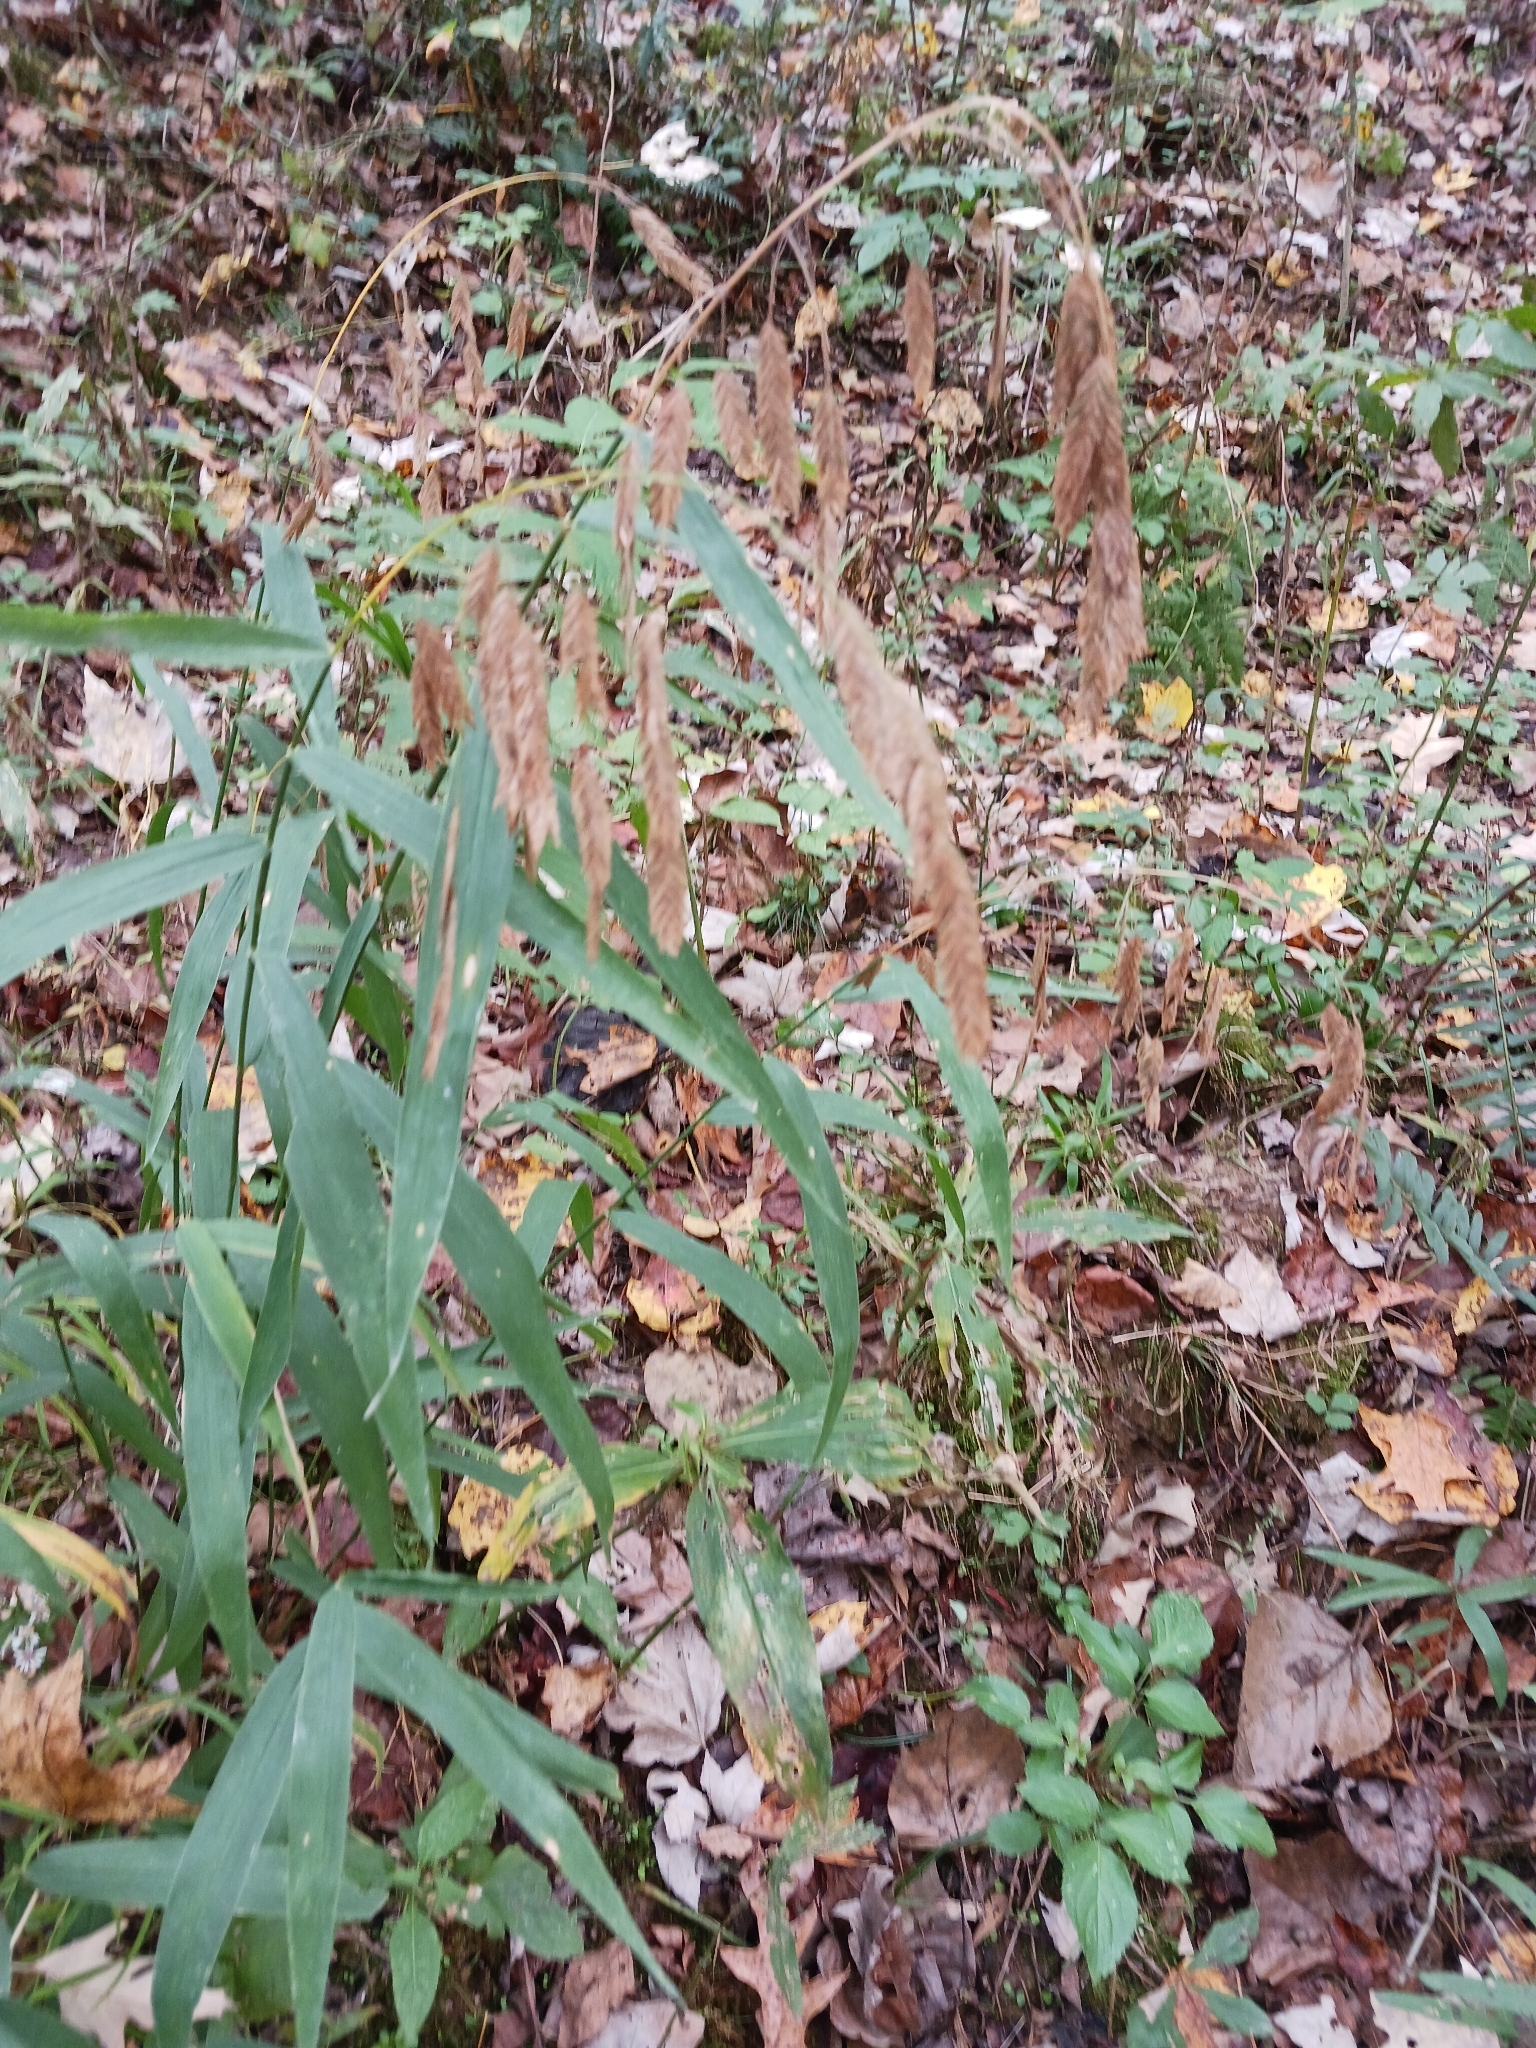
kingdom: Plantae
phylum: Tracheophyta
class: Liliopsida
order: Poales
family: Poaceae
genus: Chasmanthium
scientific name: Chasmanthium latifolium
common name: Broad-leaved chasmanthium
